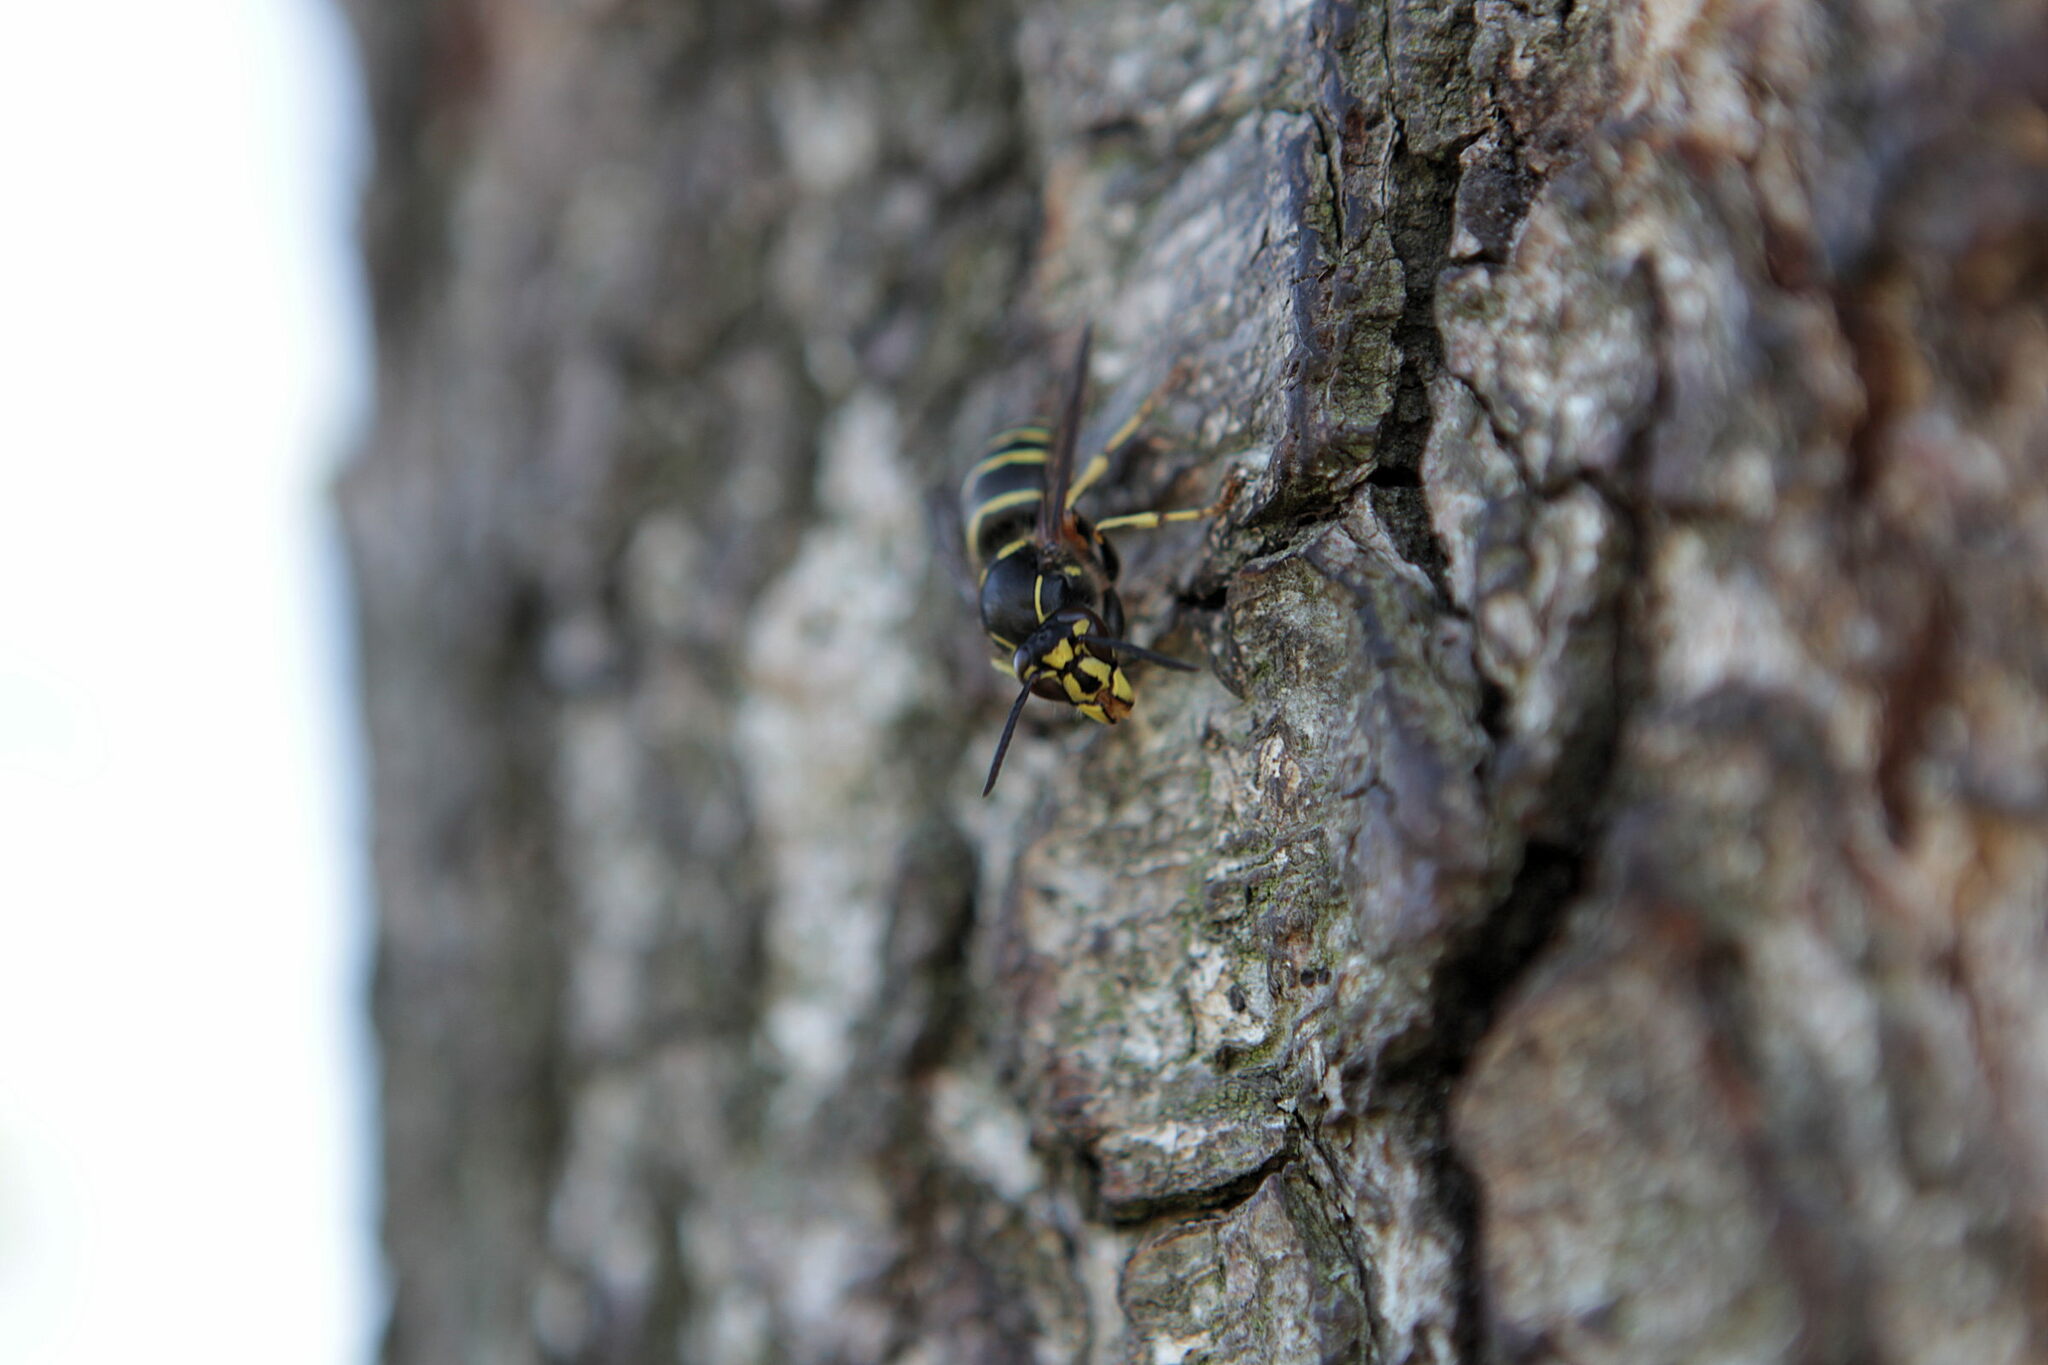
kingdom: Animalia
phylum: Arthropoda
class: Insecta
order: Hymenoptera
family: Vespidae
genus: Dolichovespula
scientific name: Dolichovespula media
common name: Median wasp
